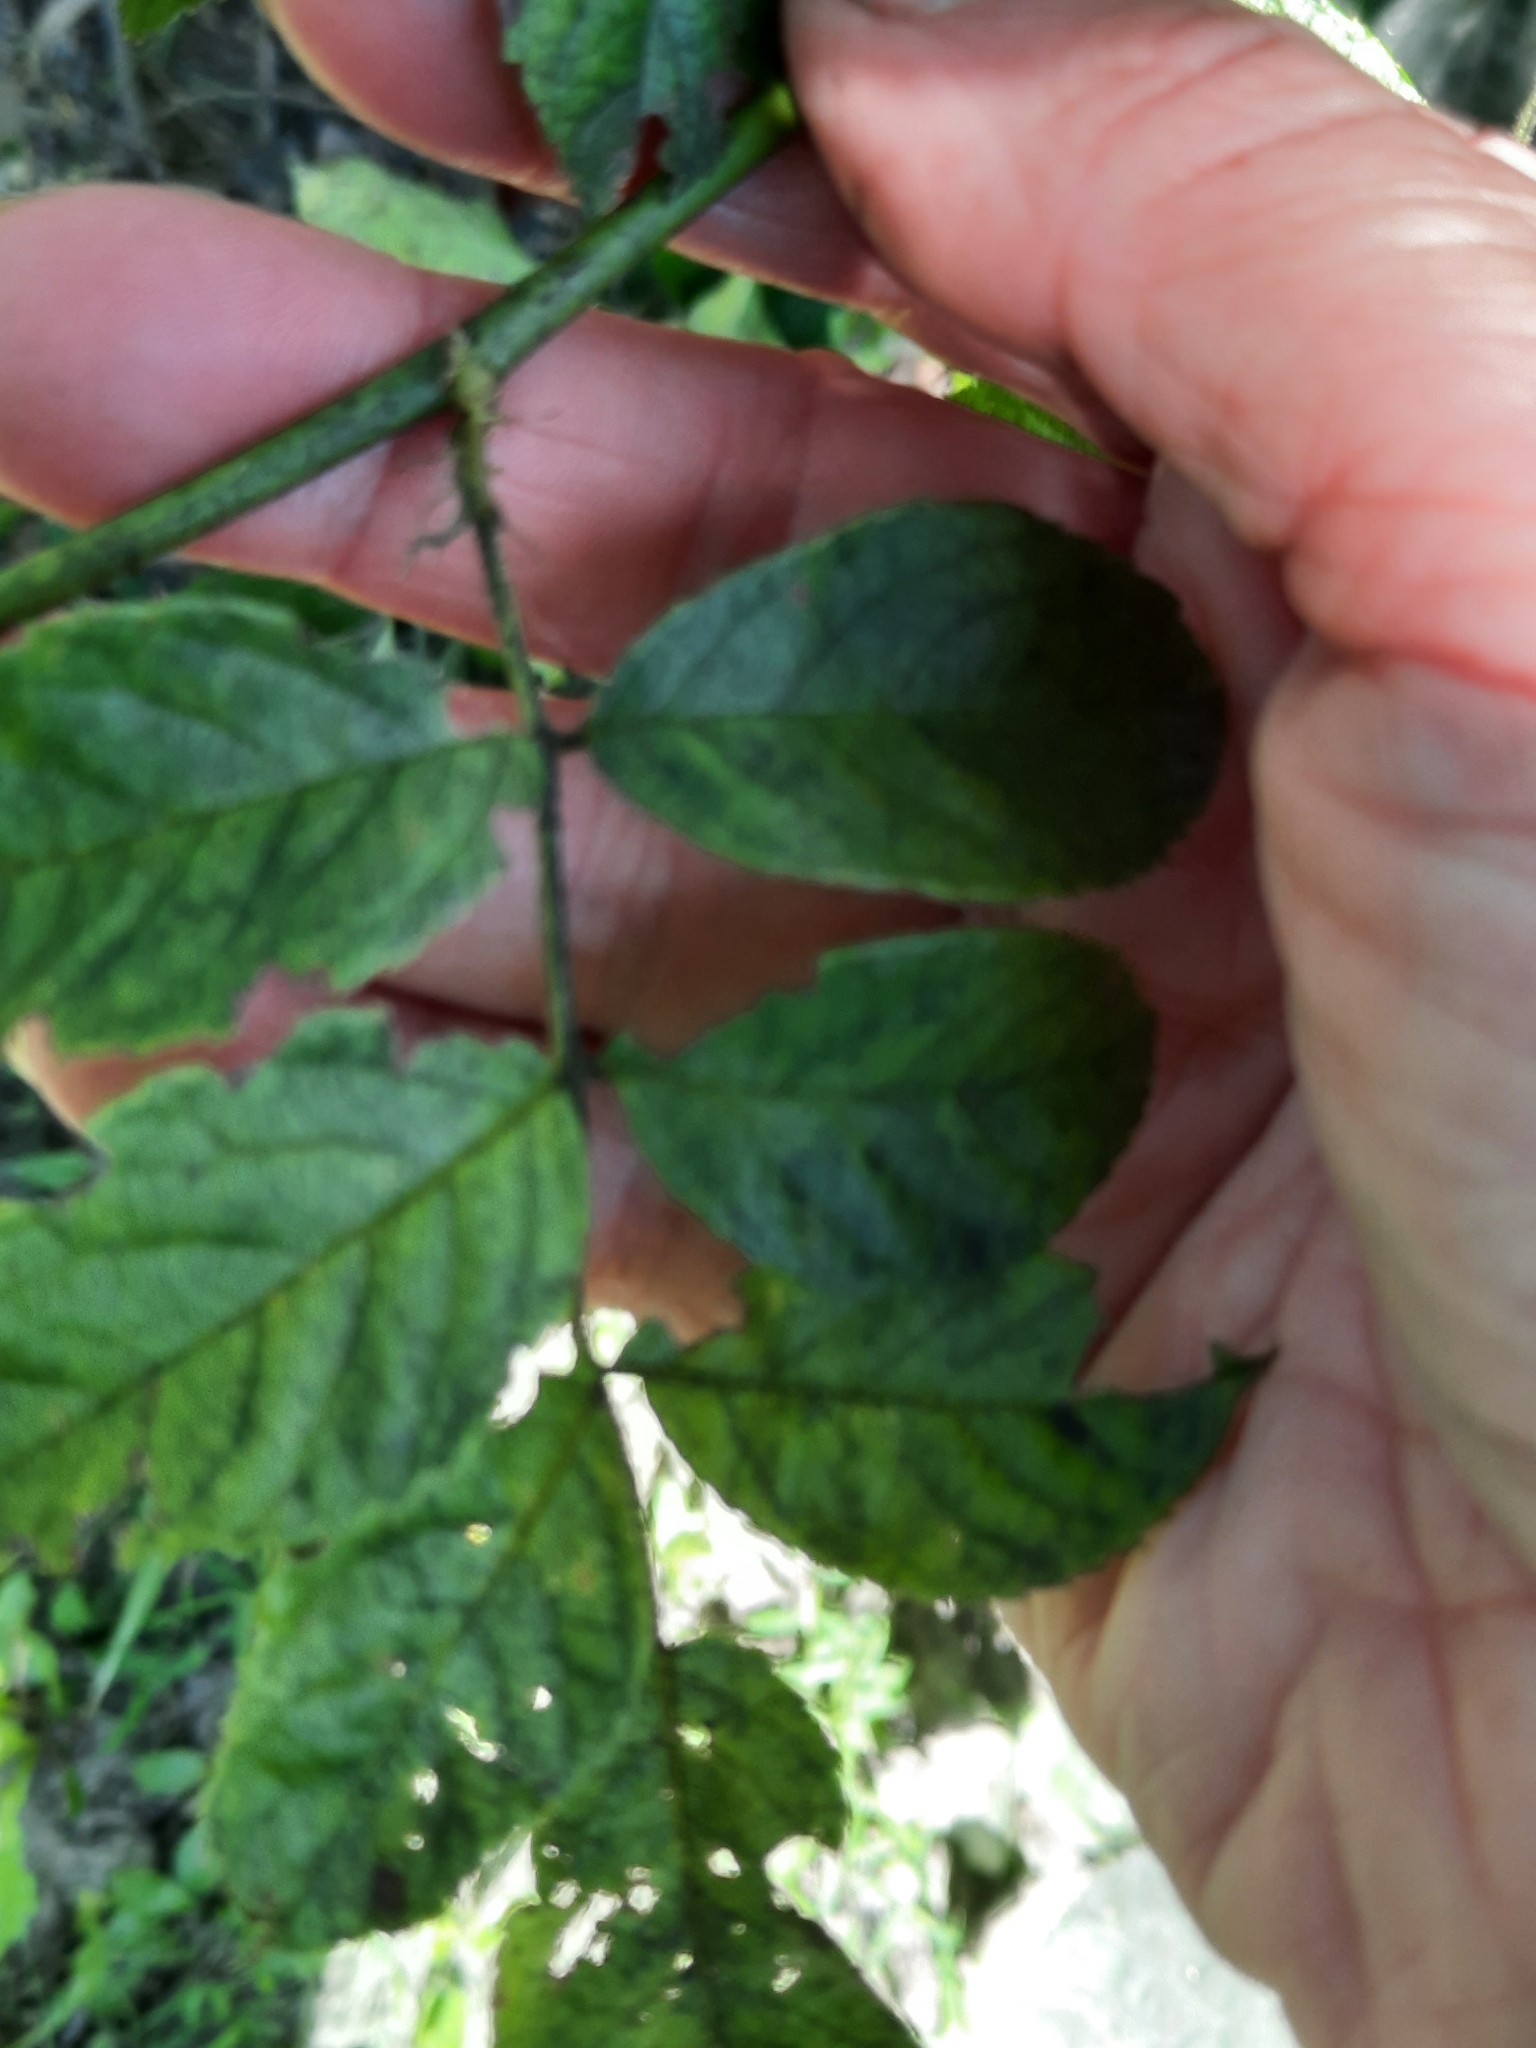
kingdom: Plantae
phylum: Tracheophyta
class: Magnoliopsida
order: Rosales
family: Rosaceae
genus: Rosa
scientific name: Rosa multiflora
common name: Multiflora rose
